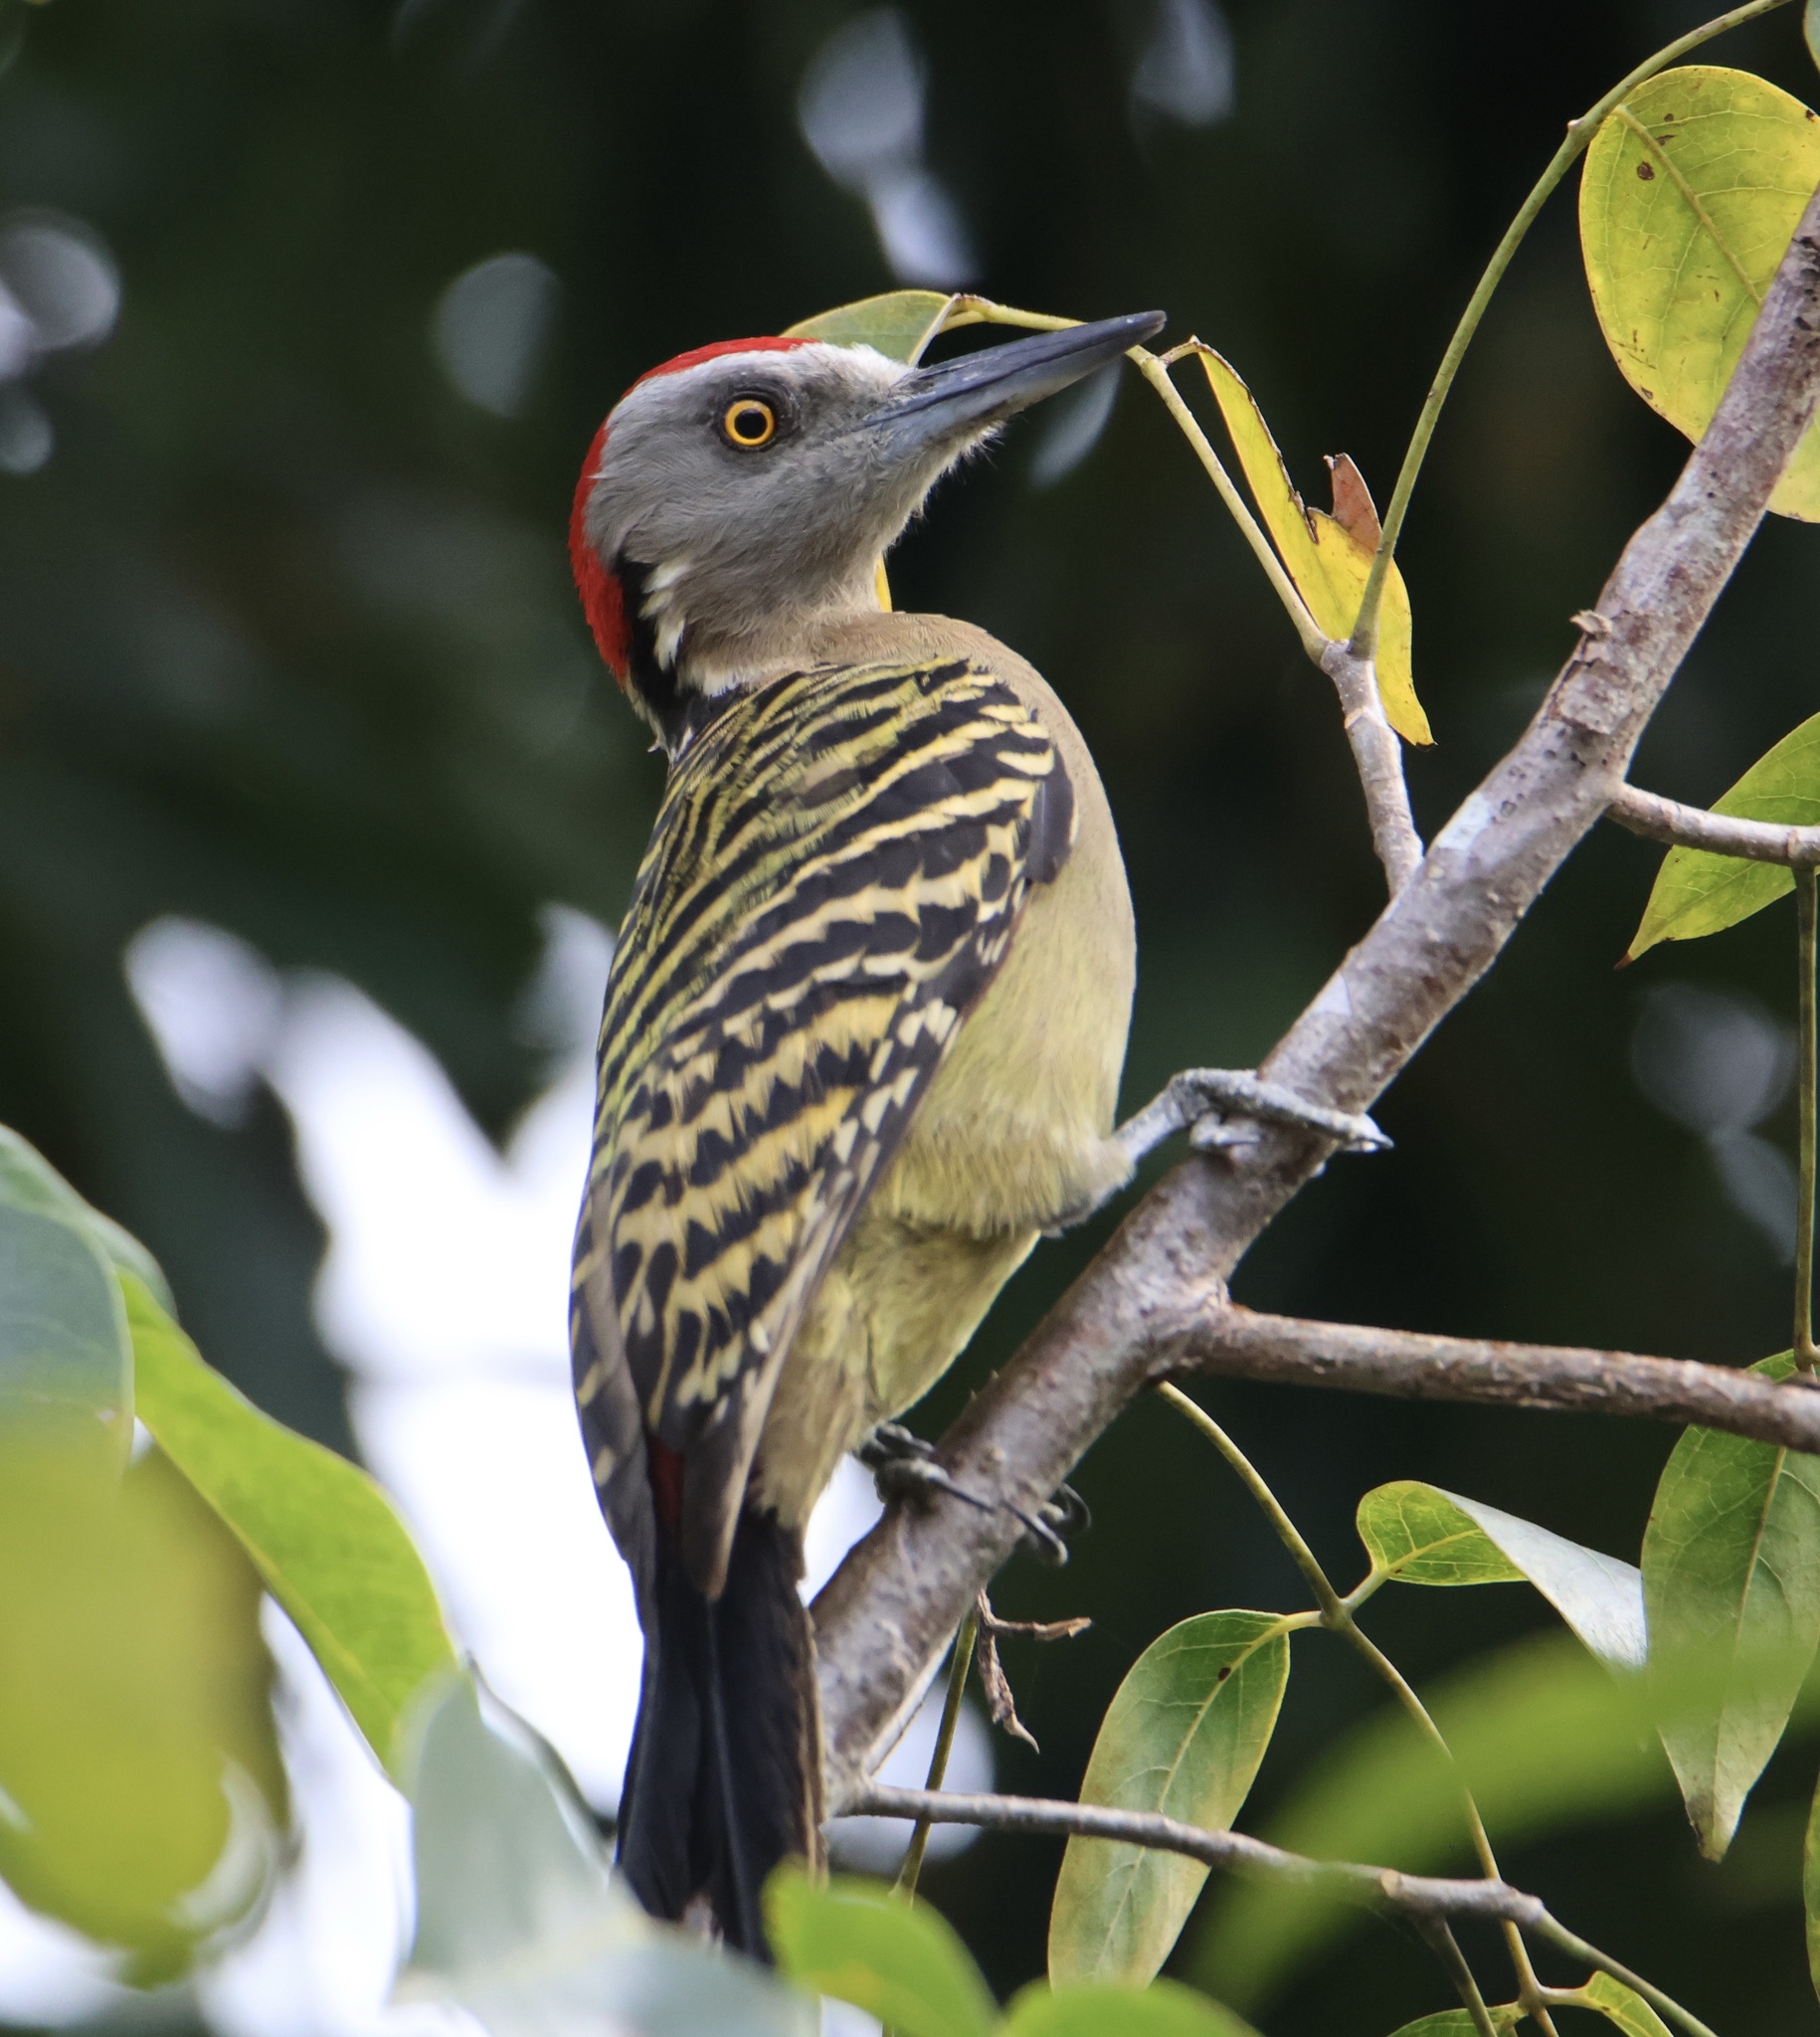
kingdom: Animalia
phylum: Chordata
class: Aves
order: Piciformes
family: Picidae
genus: Melanerpes
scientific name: Melanerpes striatus
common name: Hispaniolan woodpecker
